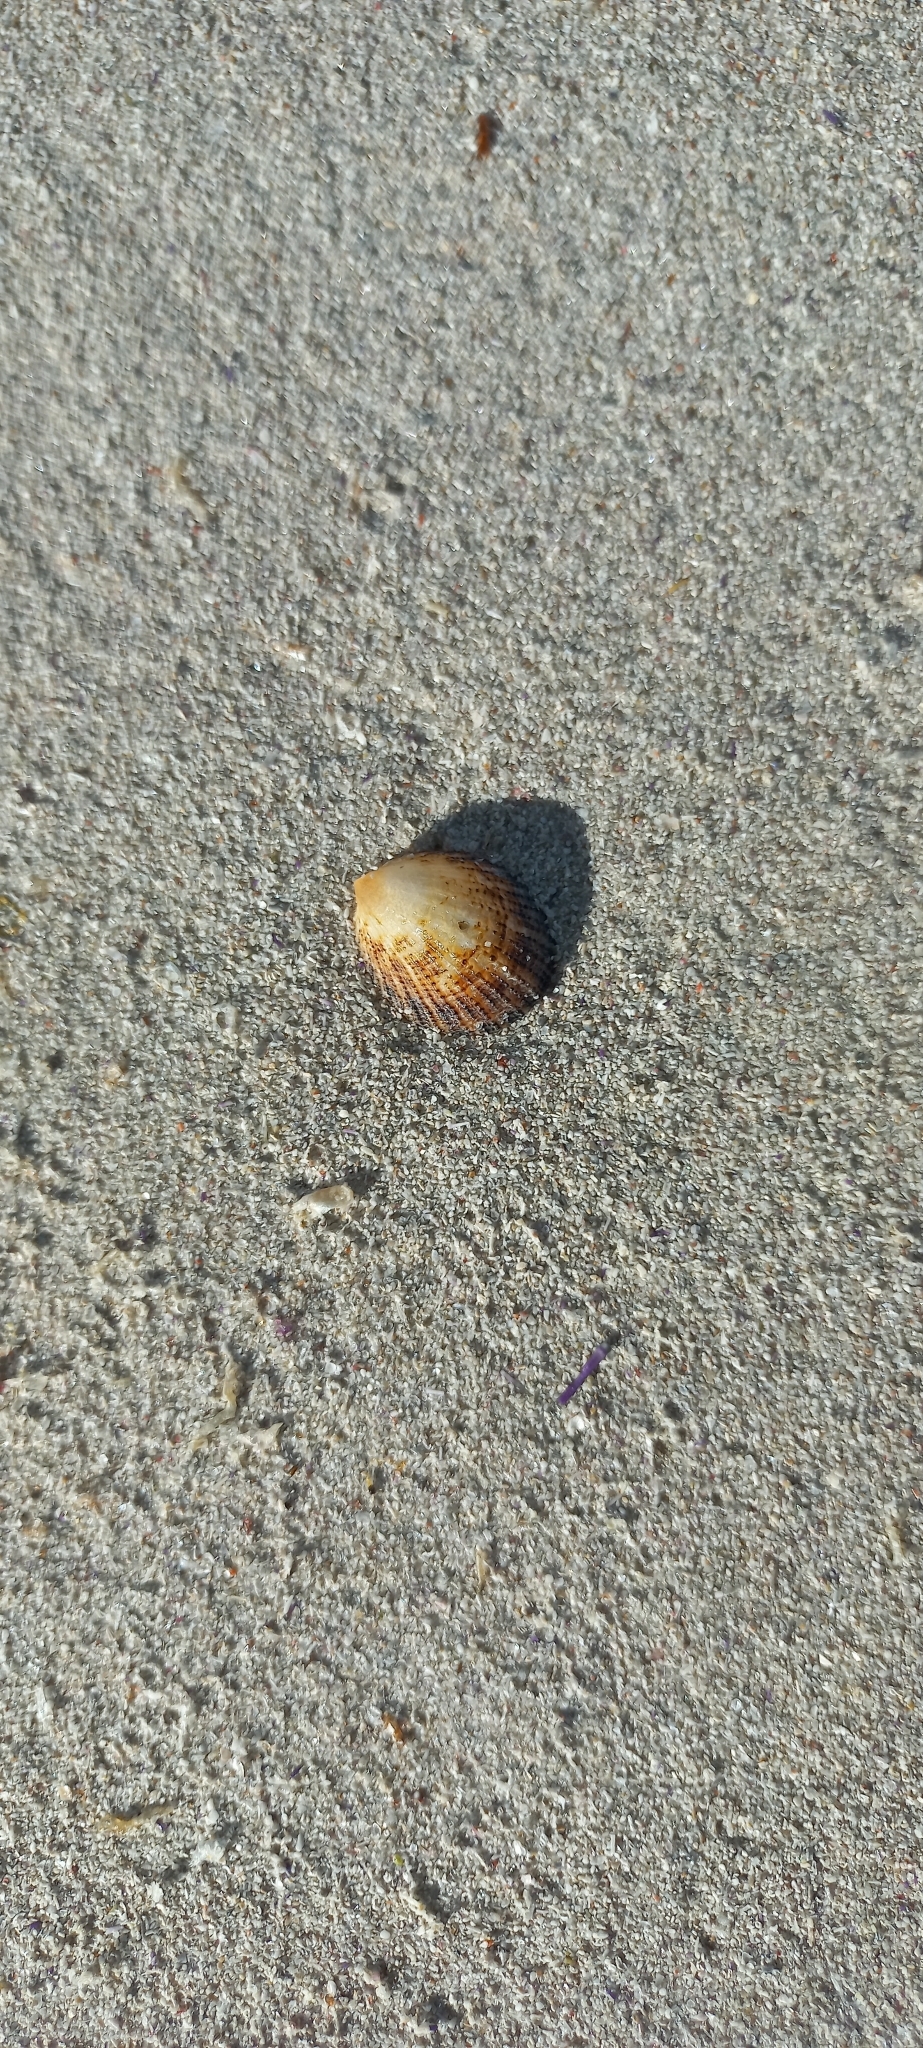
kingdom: Animalia
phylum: Mollusca
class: Gastropoda
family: Patellidae
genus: Helcion
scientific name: Helcion pectunculus
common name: Prickly limpet
